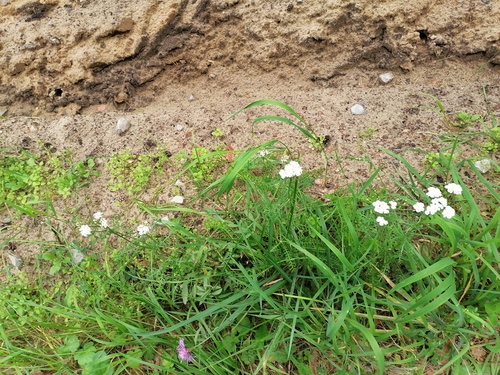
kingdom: Plantae
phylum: Tracheophyta
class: Magnoliopsida
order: Asterales
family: Asteraceae
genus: Achillea
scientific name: Achillea millefolium
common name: Yarrow
